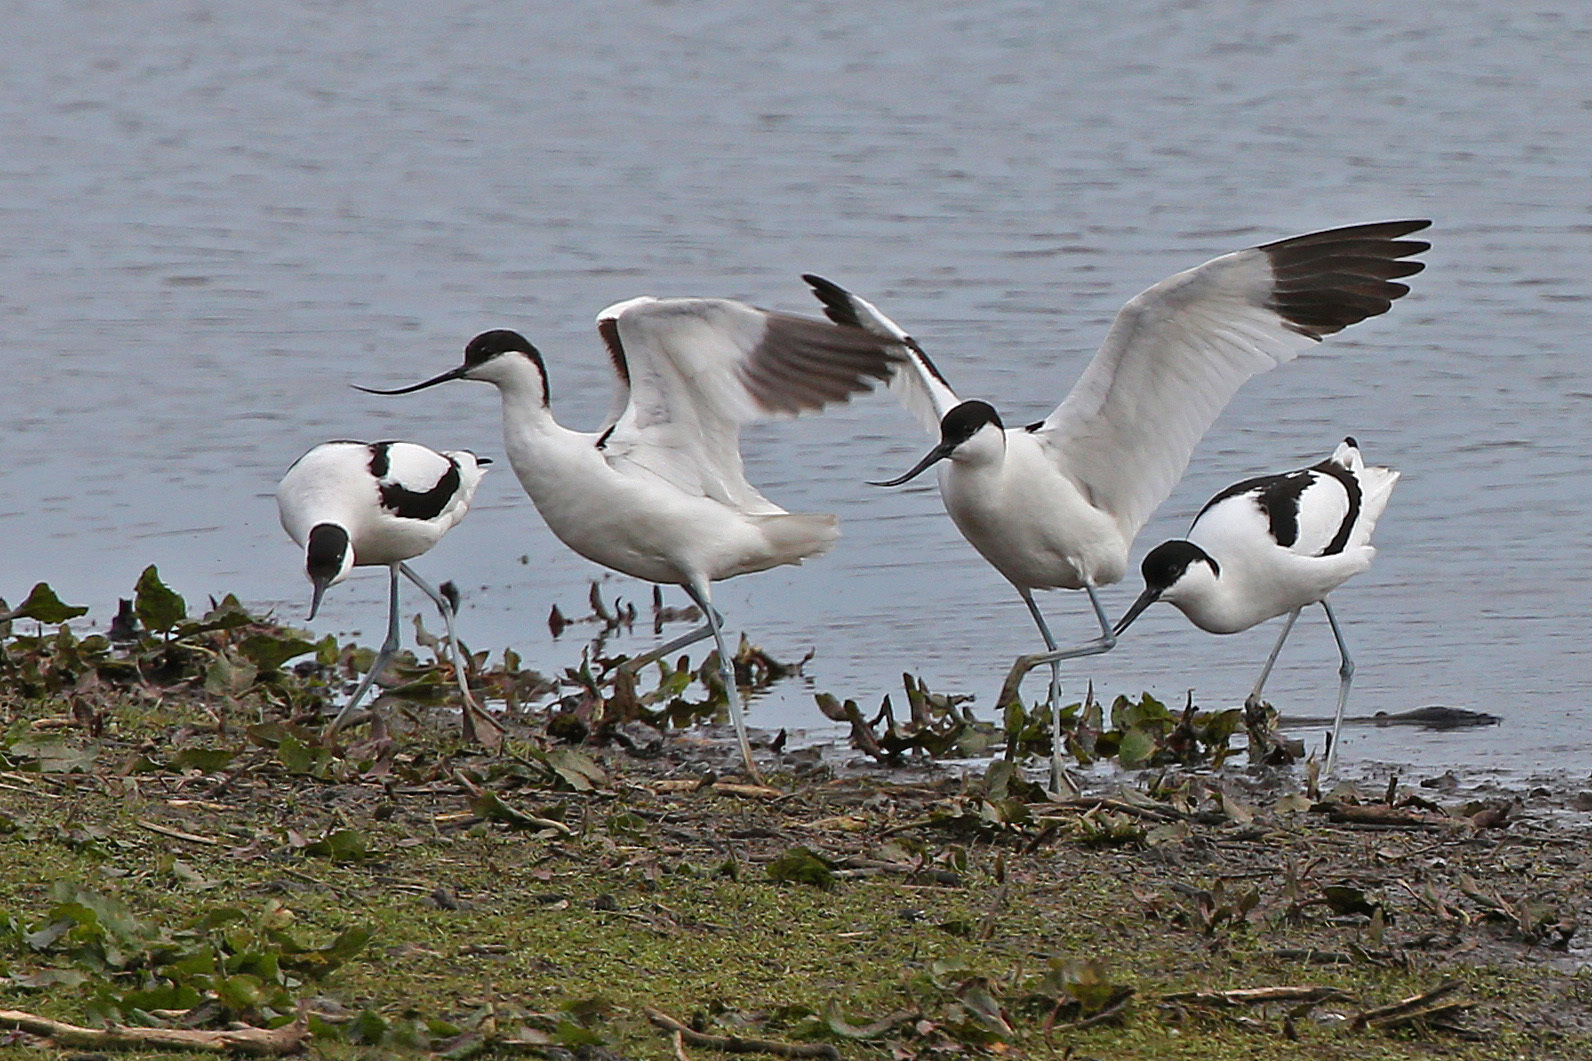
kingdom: Animalia
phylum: Chordata
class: Aves
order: Charadriiformes
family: Recurvirostridae
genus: Recurvirostra
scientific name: Recurvirostra avosetta
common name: Pied avocet
